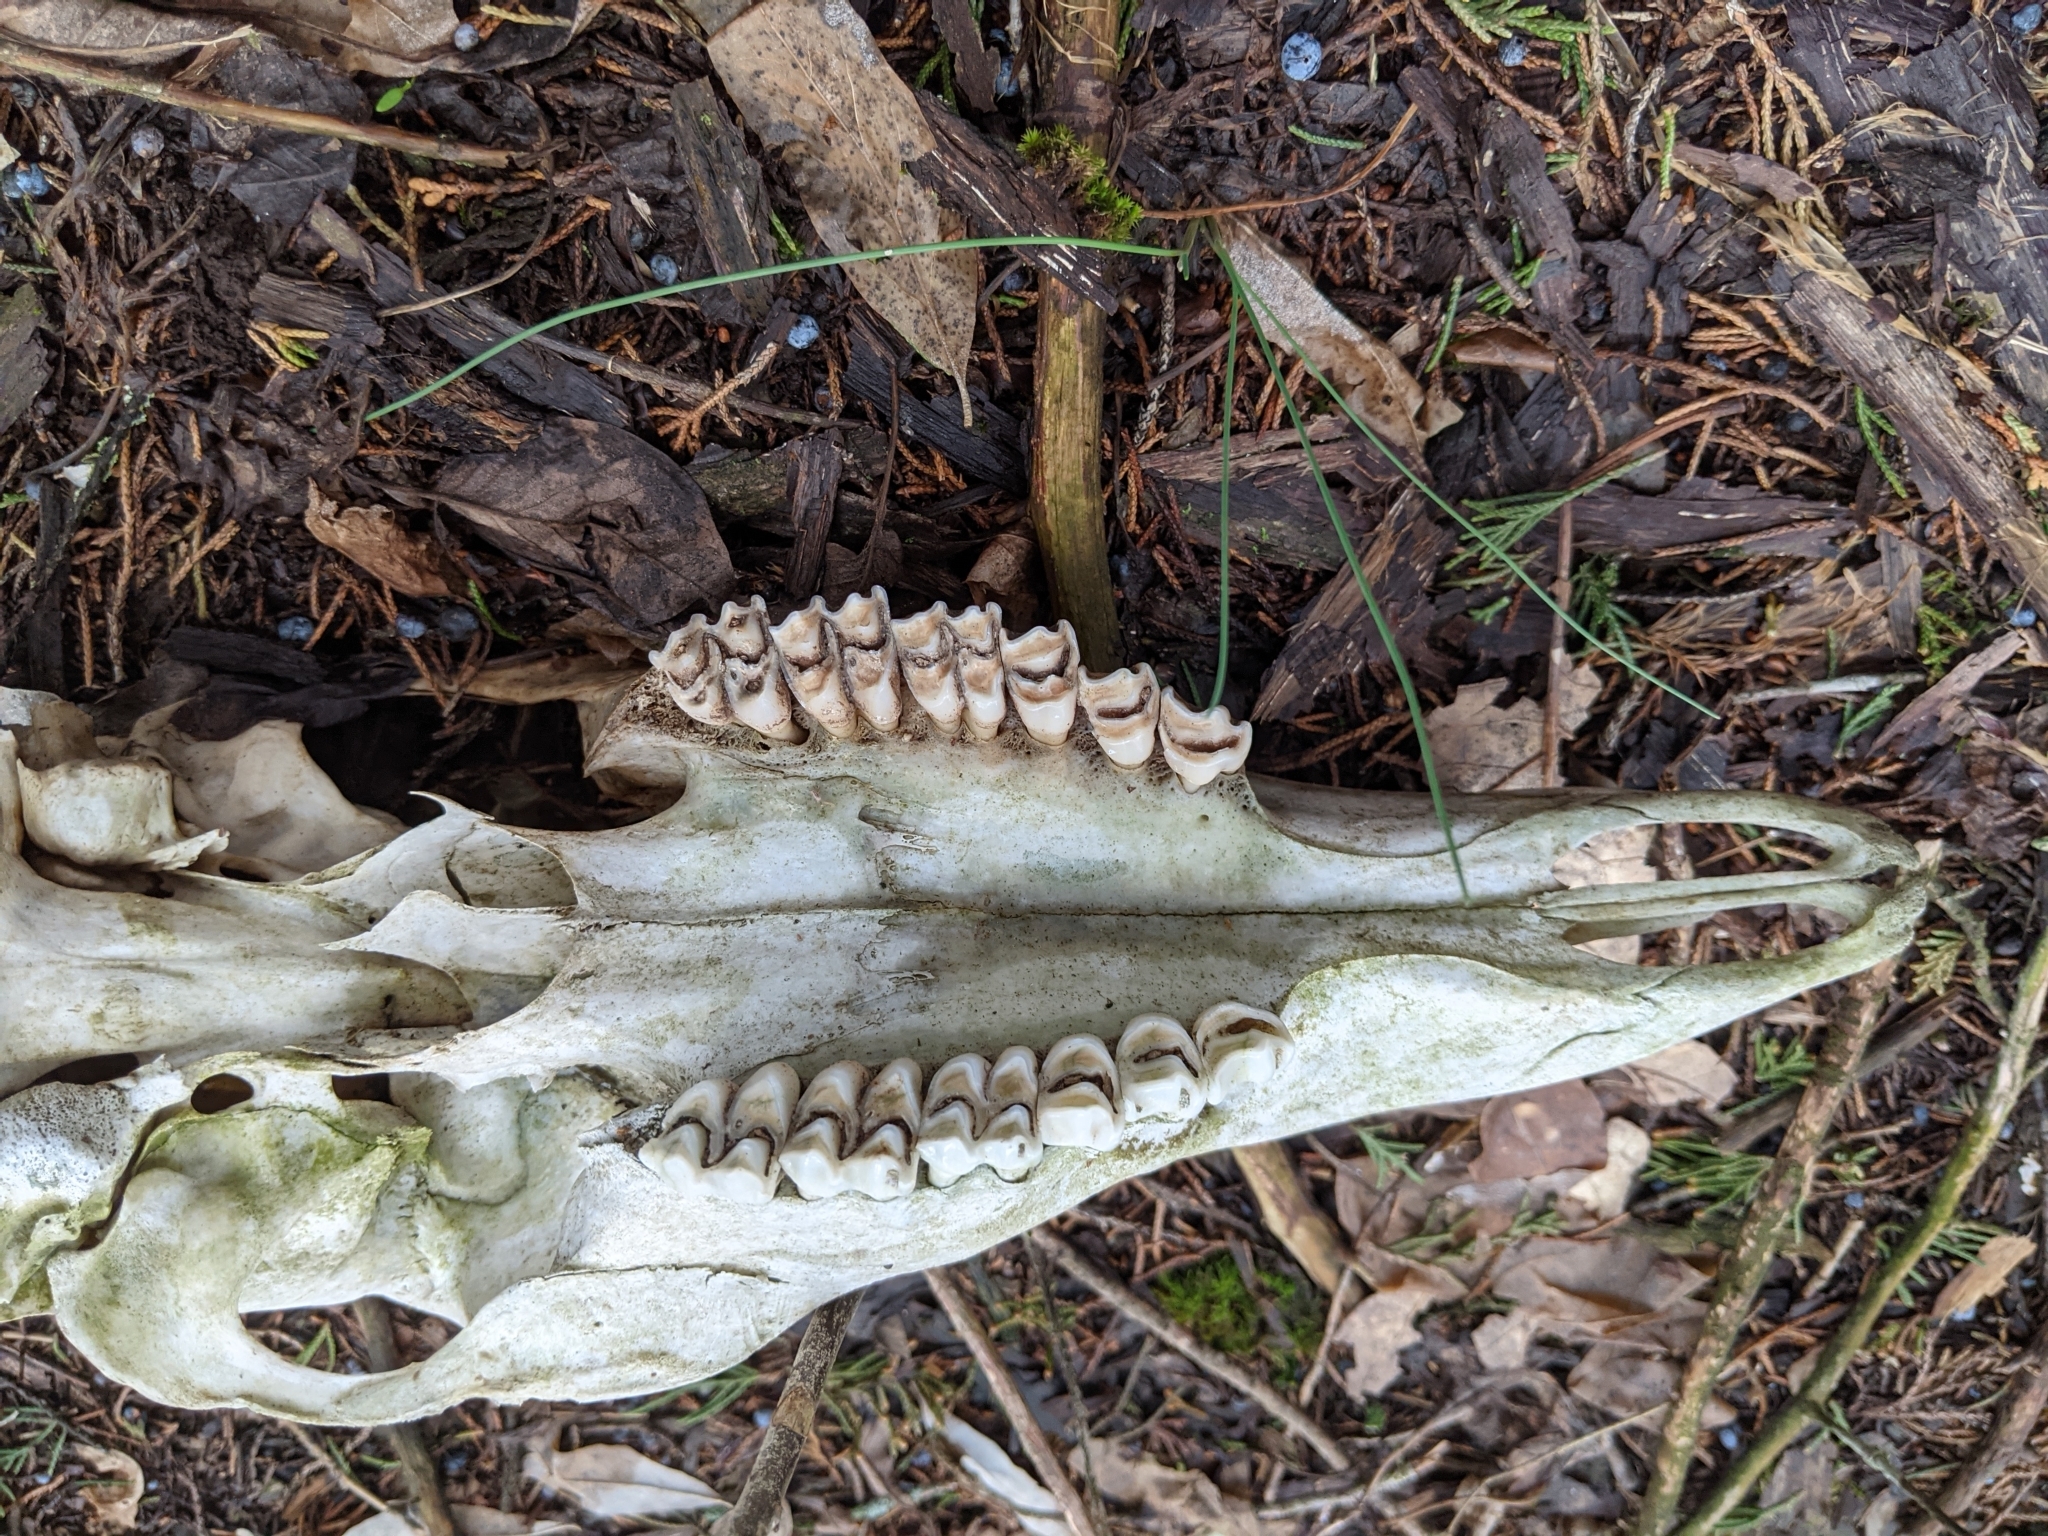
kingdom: Animalia
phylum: Chordata
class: Mammalia
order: Artiodactyla
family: Cervidae
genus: Odocoileus
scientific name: Odocoileus virginianus
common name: White-tailed deer
